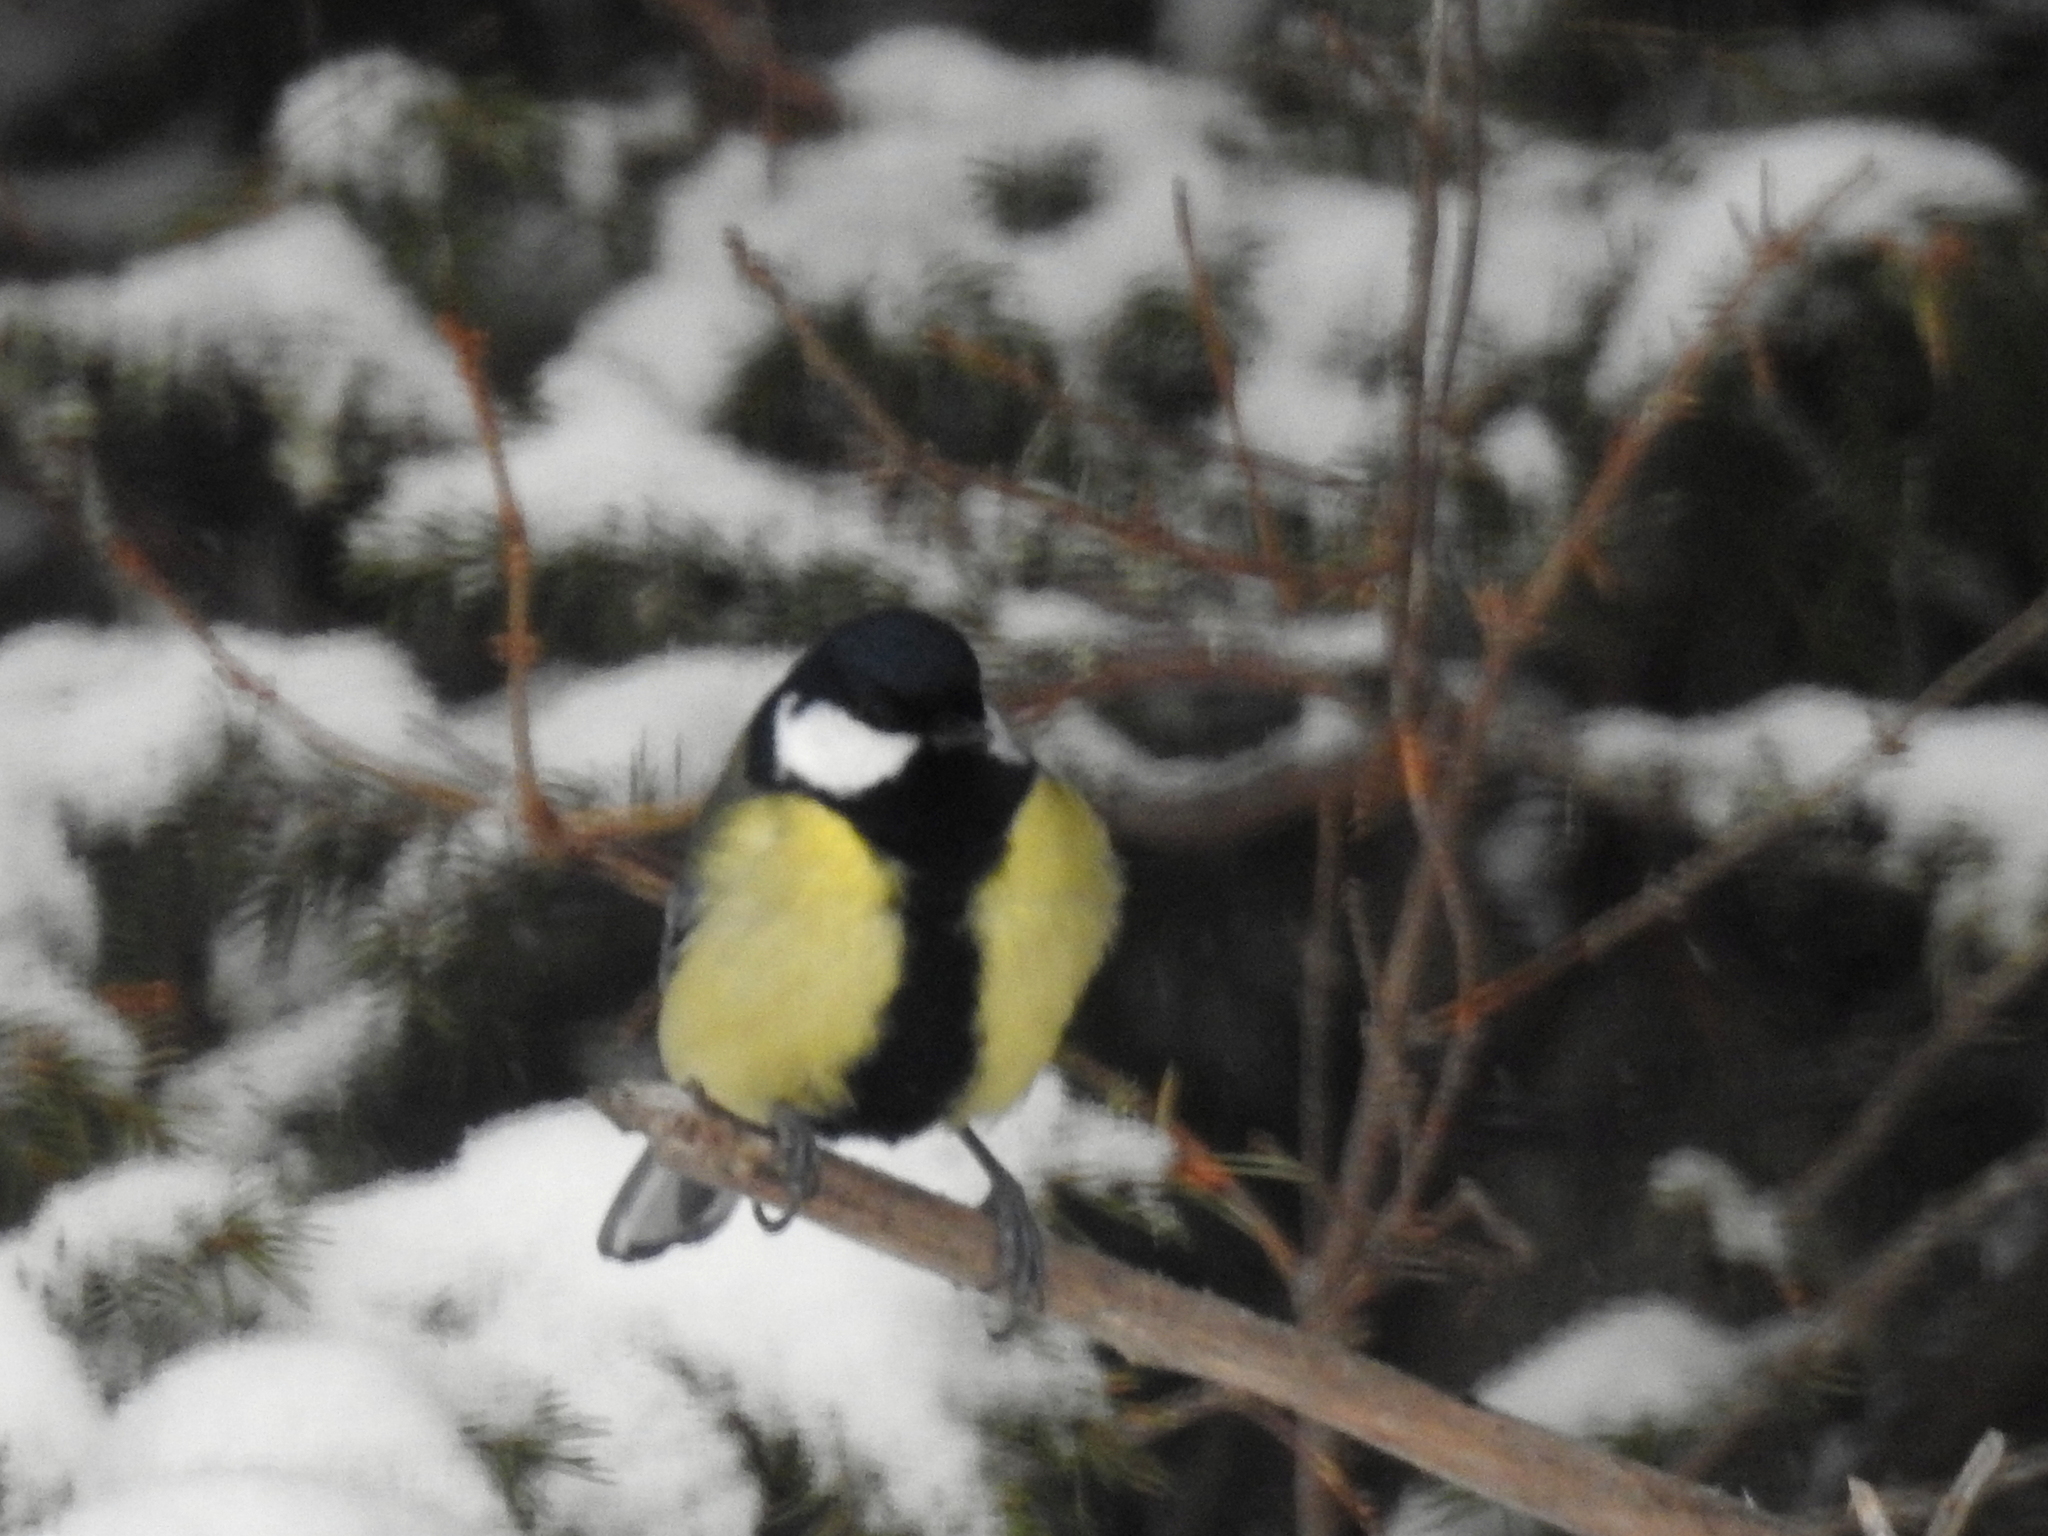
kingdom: Animalia
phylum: Chordata
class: Aves
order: Passeriformes
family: Paridae
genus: Parus
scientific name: Parus major
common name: Great tit
